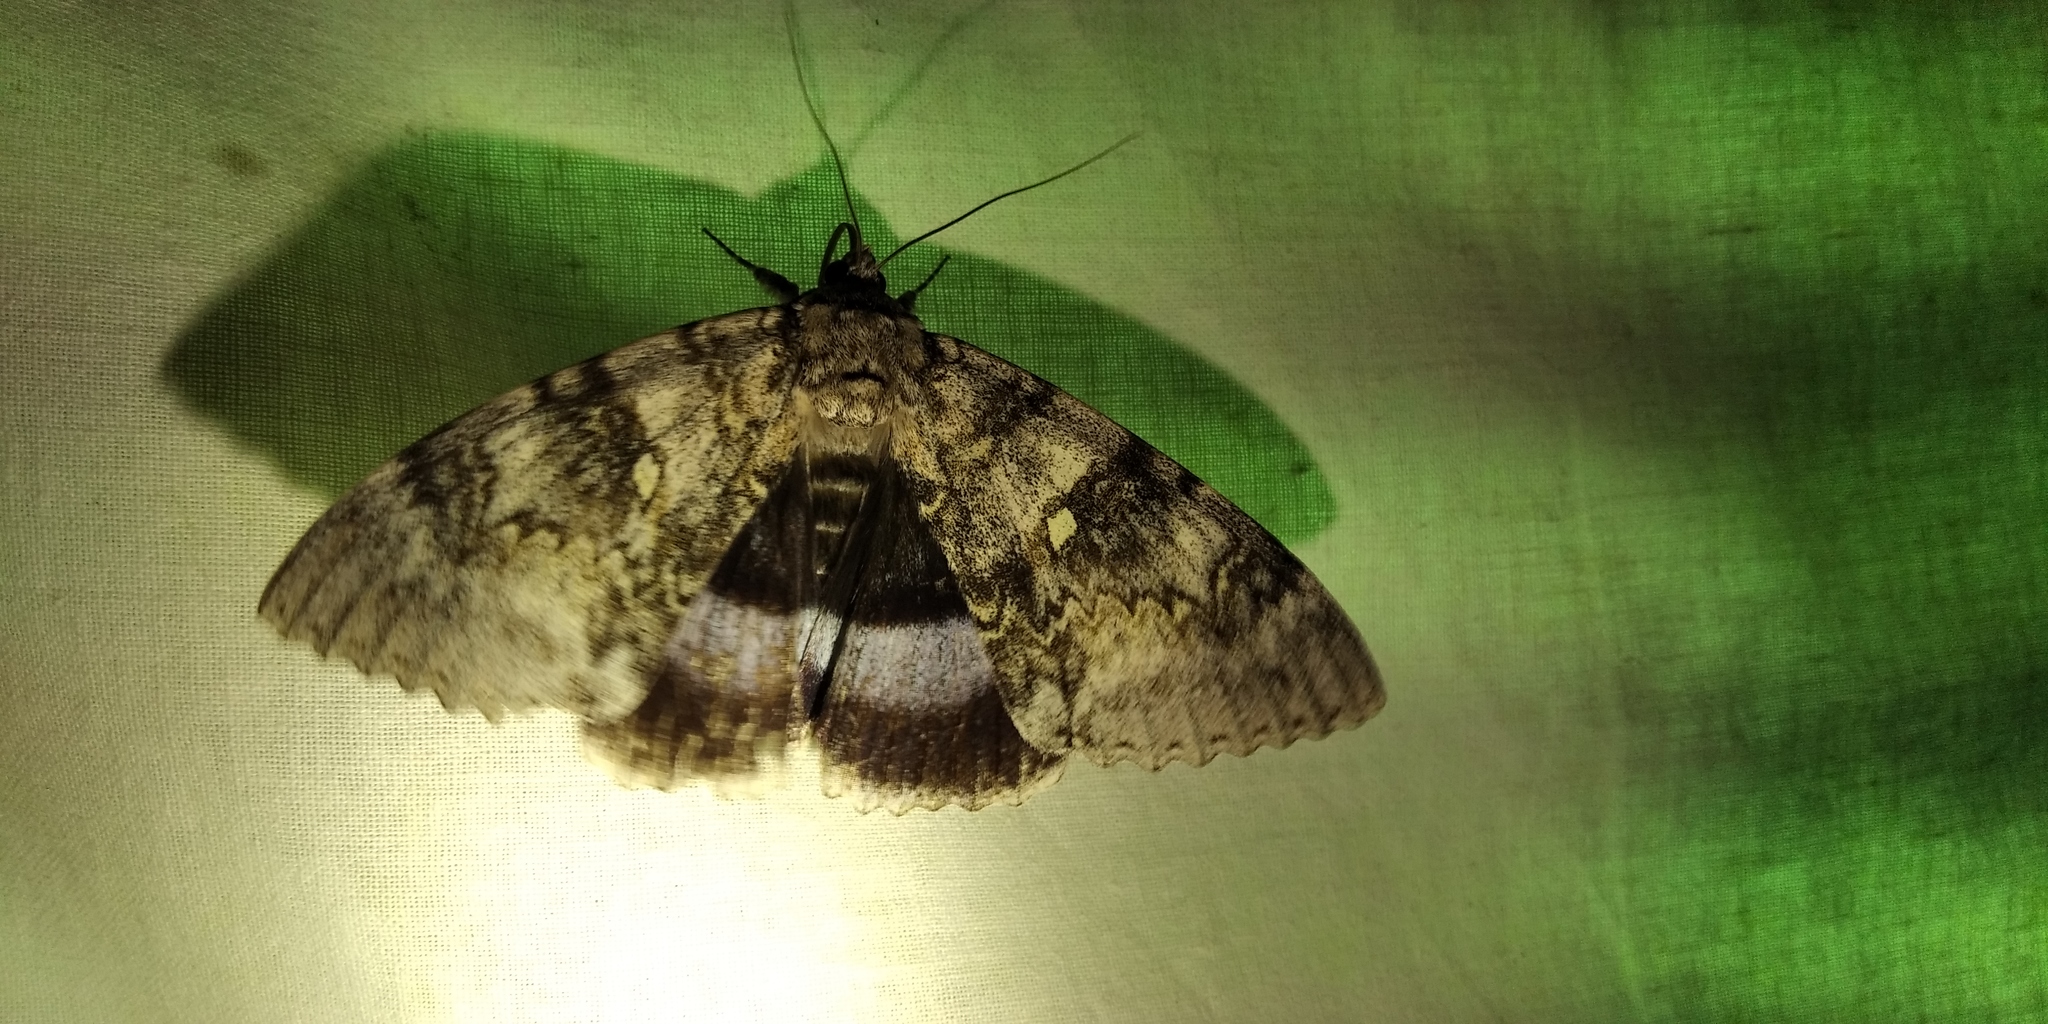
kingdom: Animalia
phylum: Arthropoda
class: Insecta
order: Lepidoptera
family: Erebidae
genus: Catocala
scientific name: Catocala fraxini
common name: Clifden nonpareil
